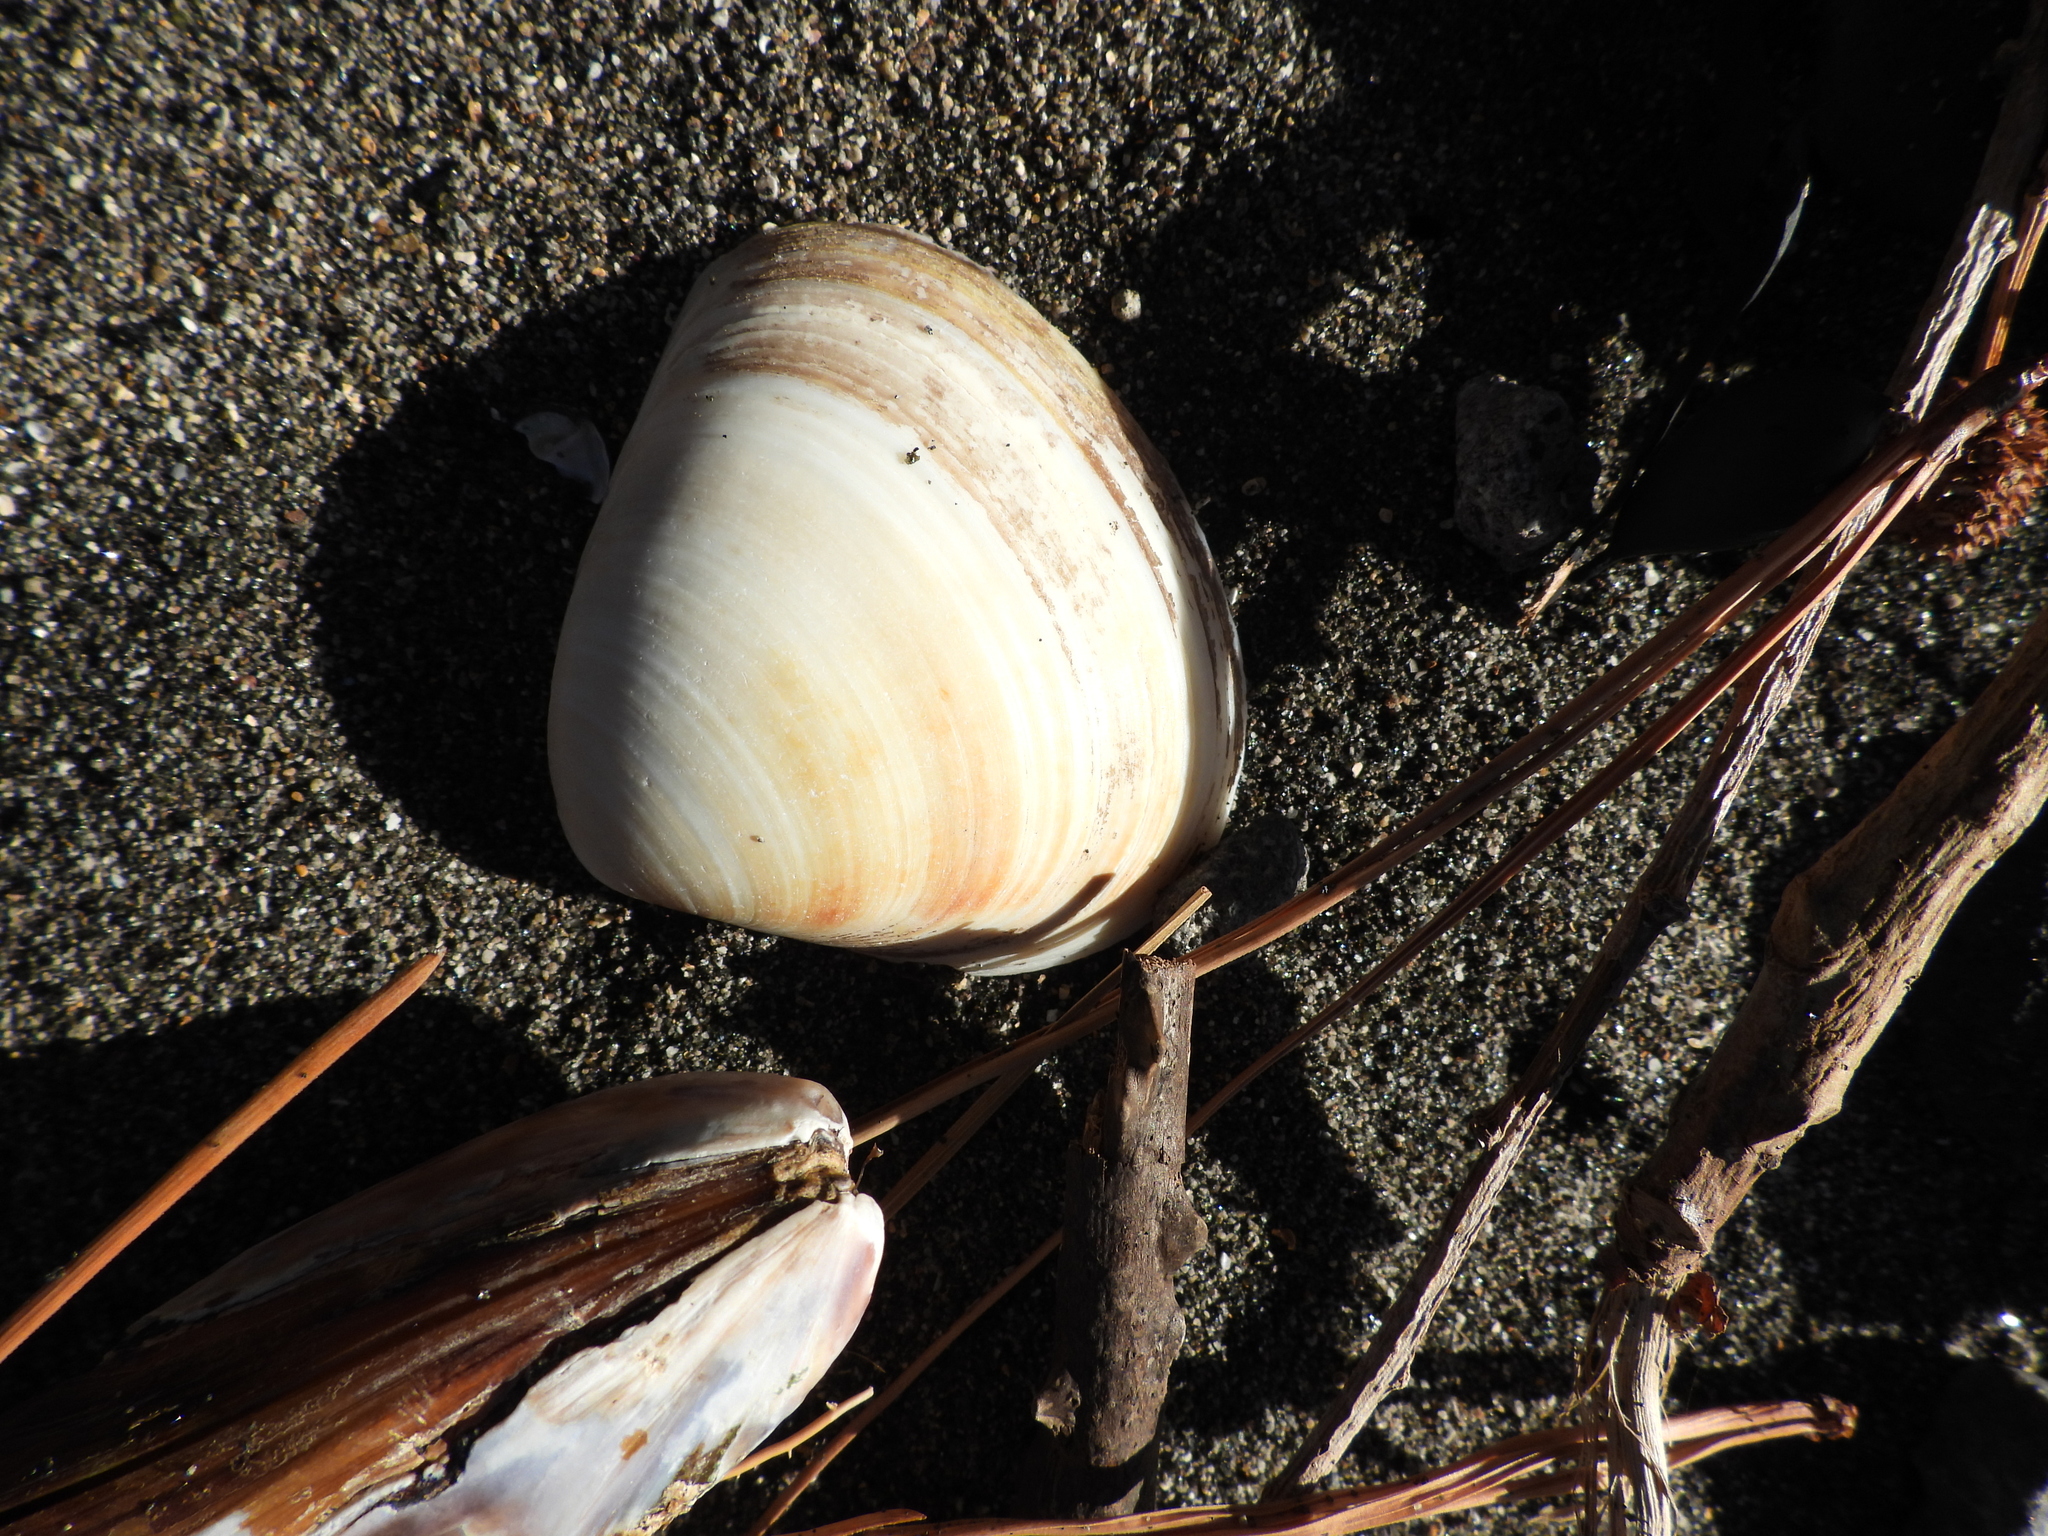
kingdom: Animalia
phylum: Mollusca
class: Bivalvia
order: Venerida
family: Mactridae
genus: Spisula
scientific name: Spisula murchisoni
